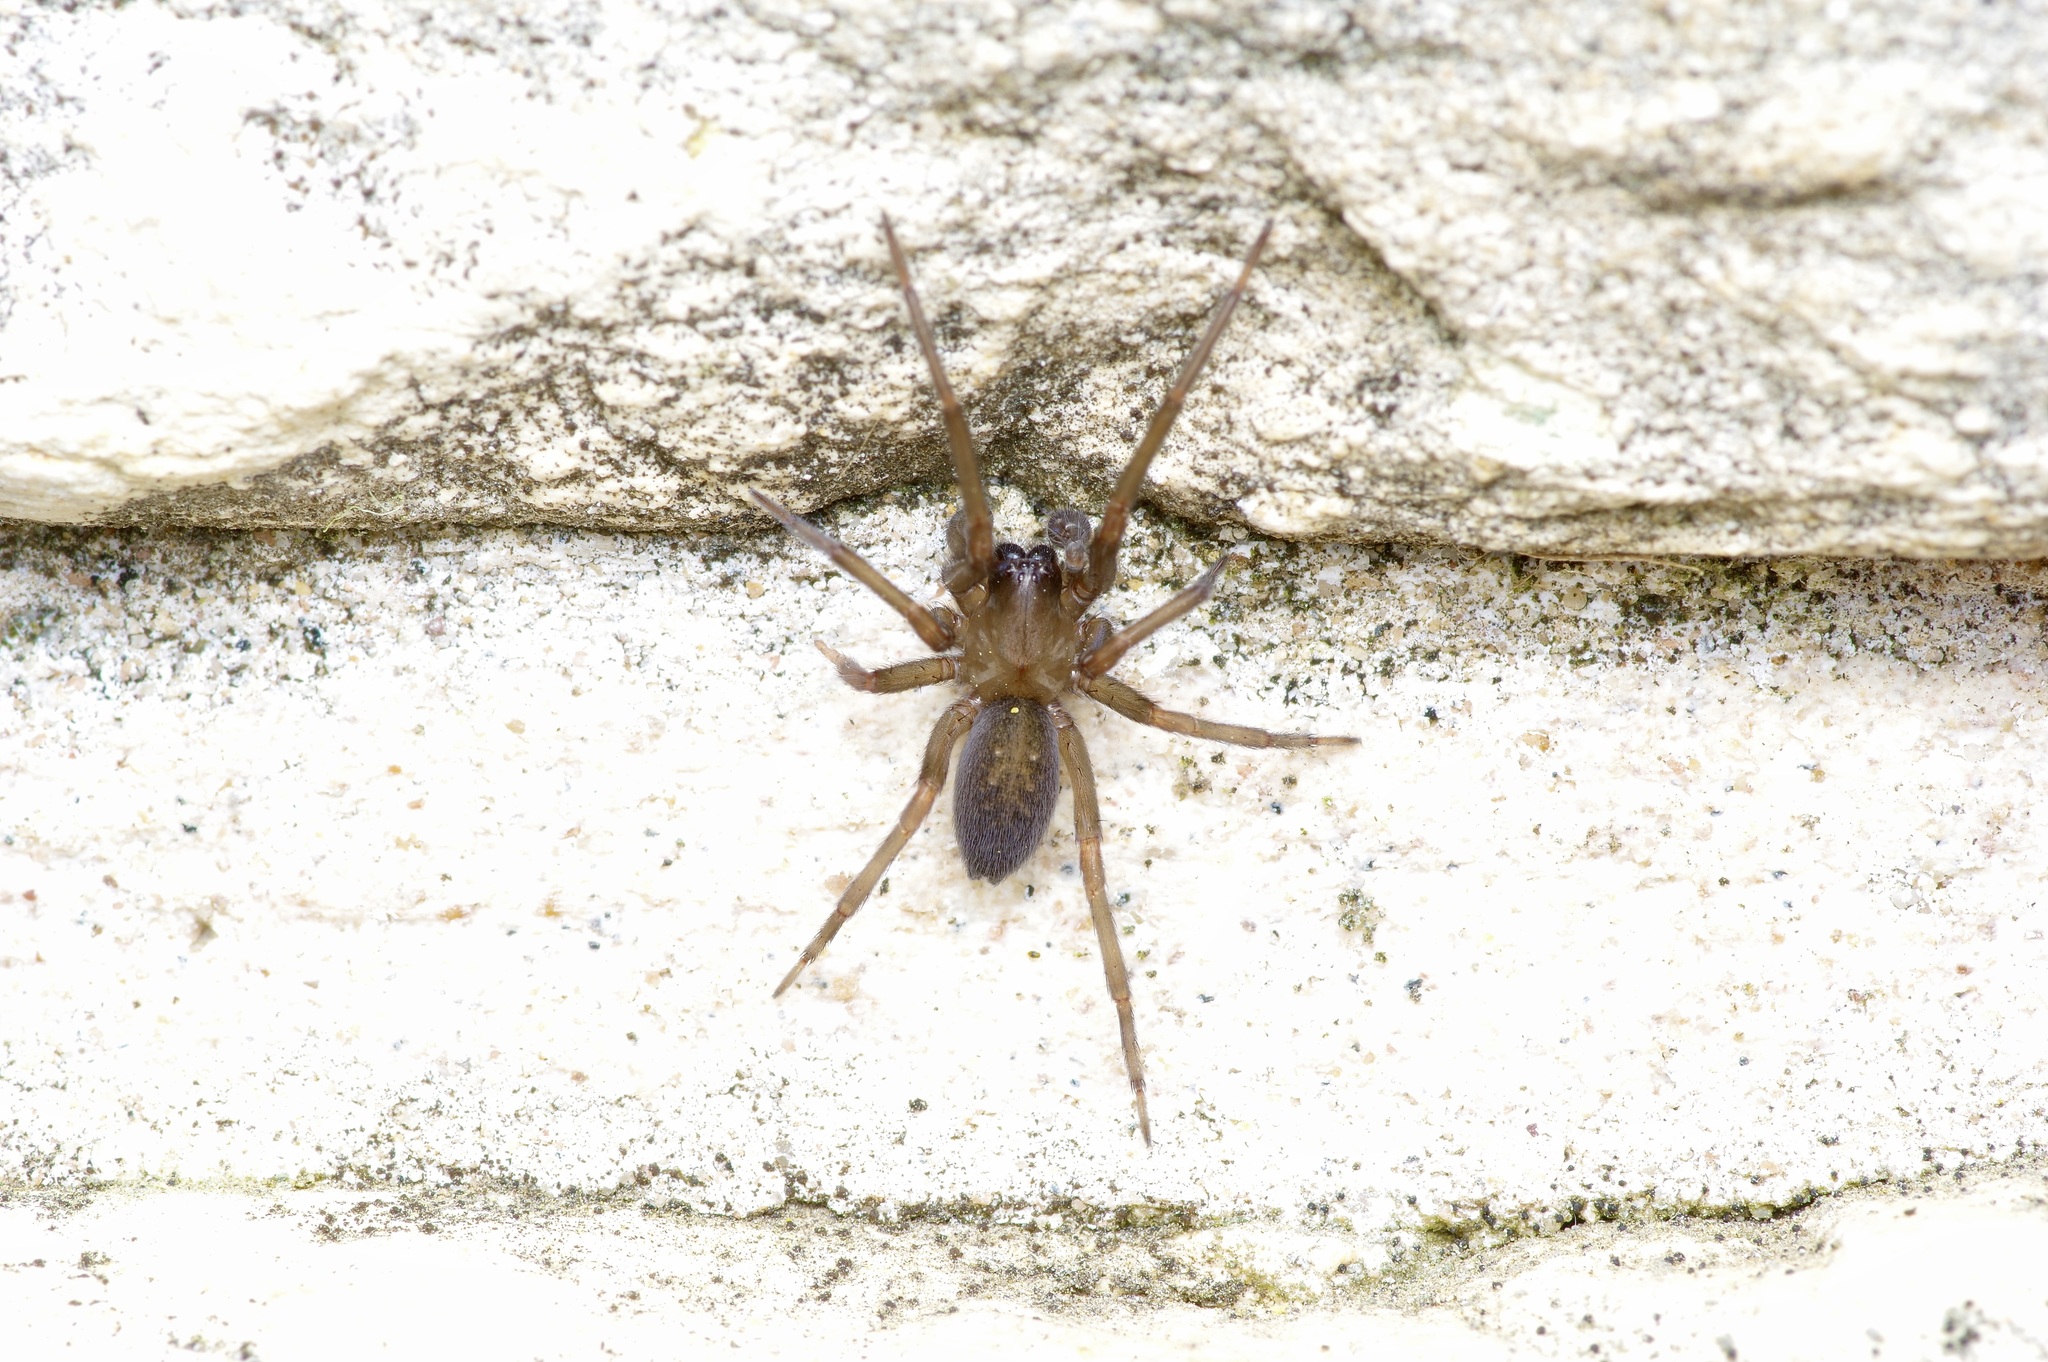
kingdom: Animalia
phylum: Arthropoda
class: Arachnida
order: Araneae
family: Desidae
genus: Metaltella
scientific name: Metaltella simoni
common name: Cribellate spider
